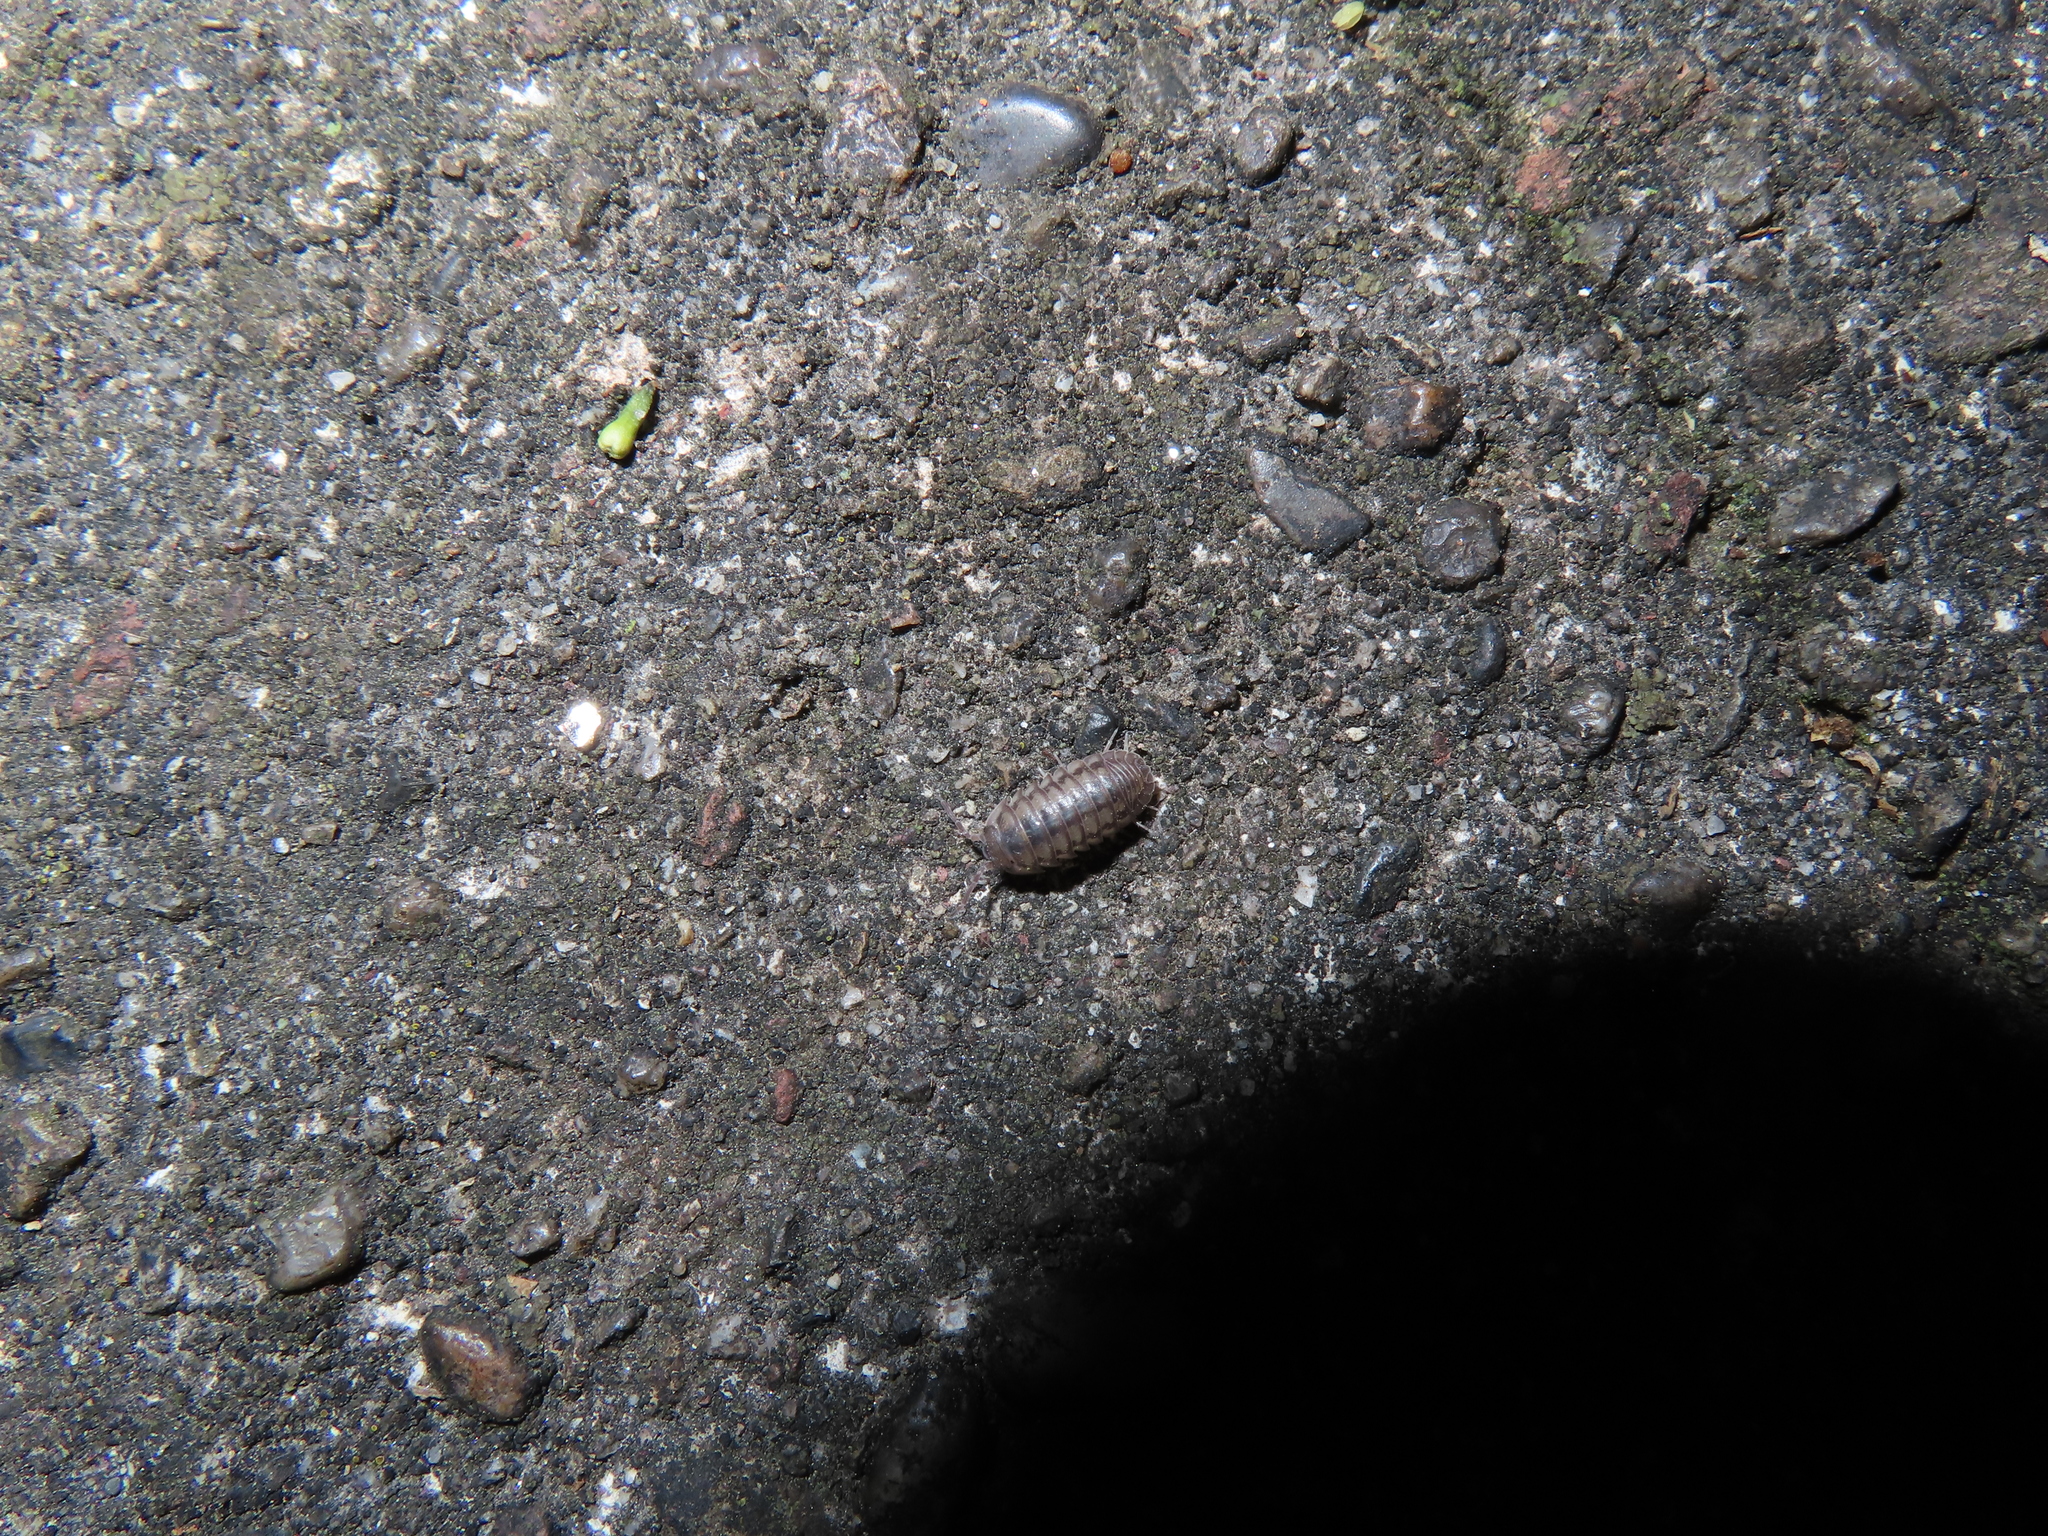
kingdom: Animalia
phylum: Arthropoda
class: Malacostraca
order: Isopoda
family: Armadillidiidae
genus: Armadillidium
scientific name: Armadillidium nasatum
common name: Isopod
